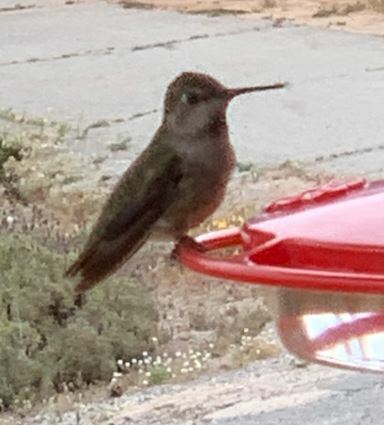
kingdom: Animalia
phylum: Chordata
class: Aves
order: Apodiformes
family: Trochilidae
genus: Calypte
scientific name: Calypte anna
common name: Anna's hummingbird
